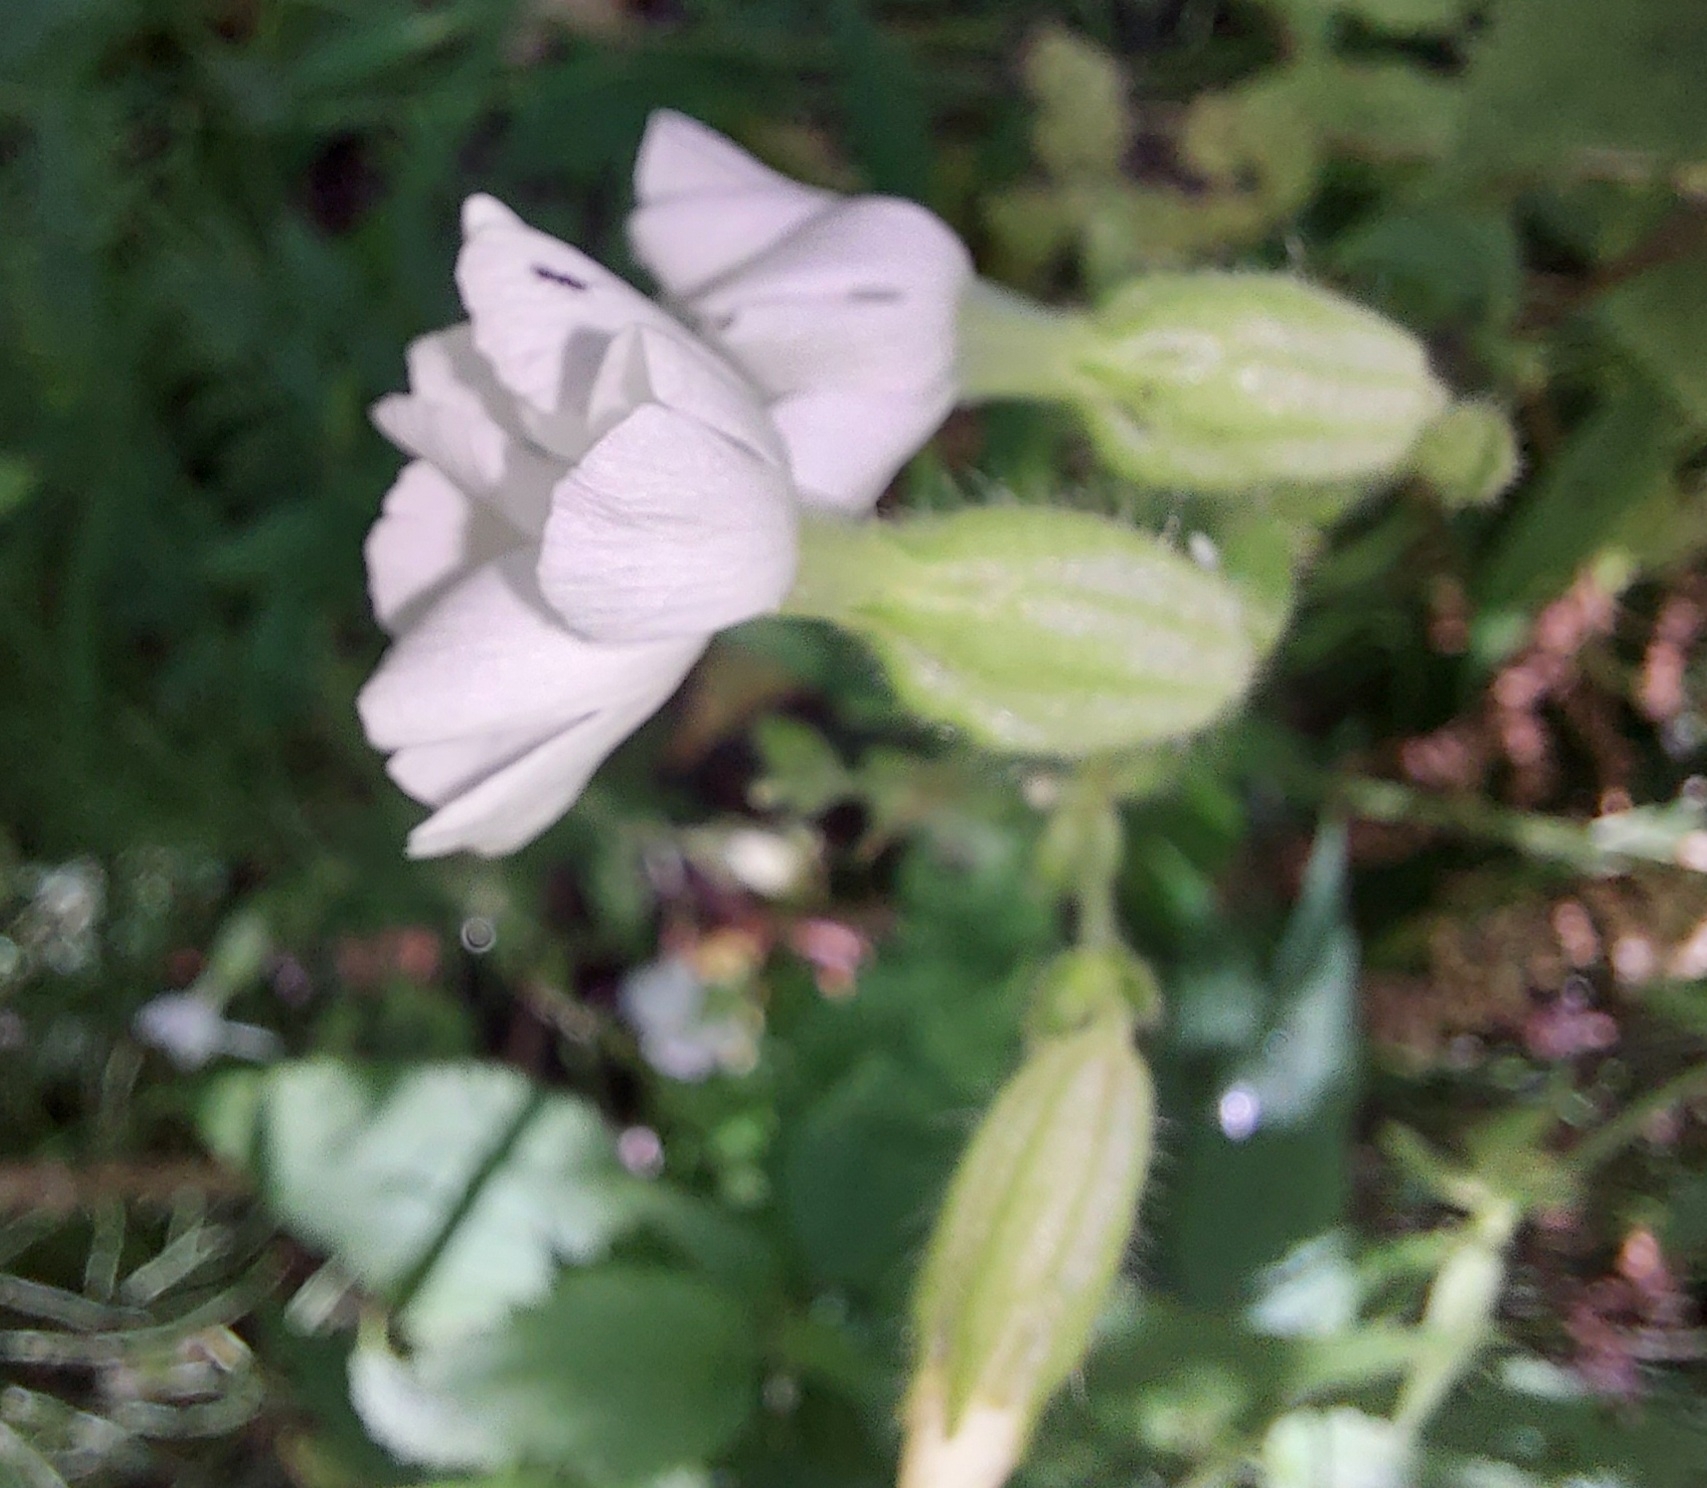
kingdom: Plantae
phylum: Tracheophyta
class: Magnoliopsida
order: Caryophyllales
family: Caryophyllaceae
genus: Silene
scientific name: Silene latifolia
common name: White campion
